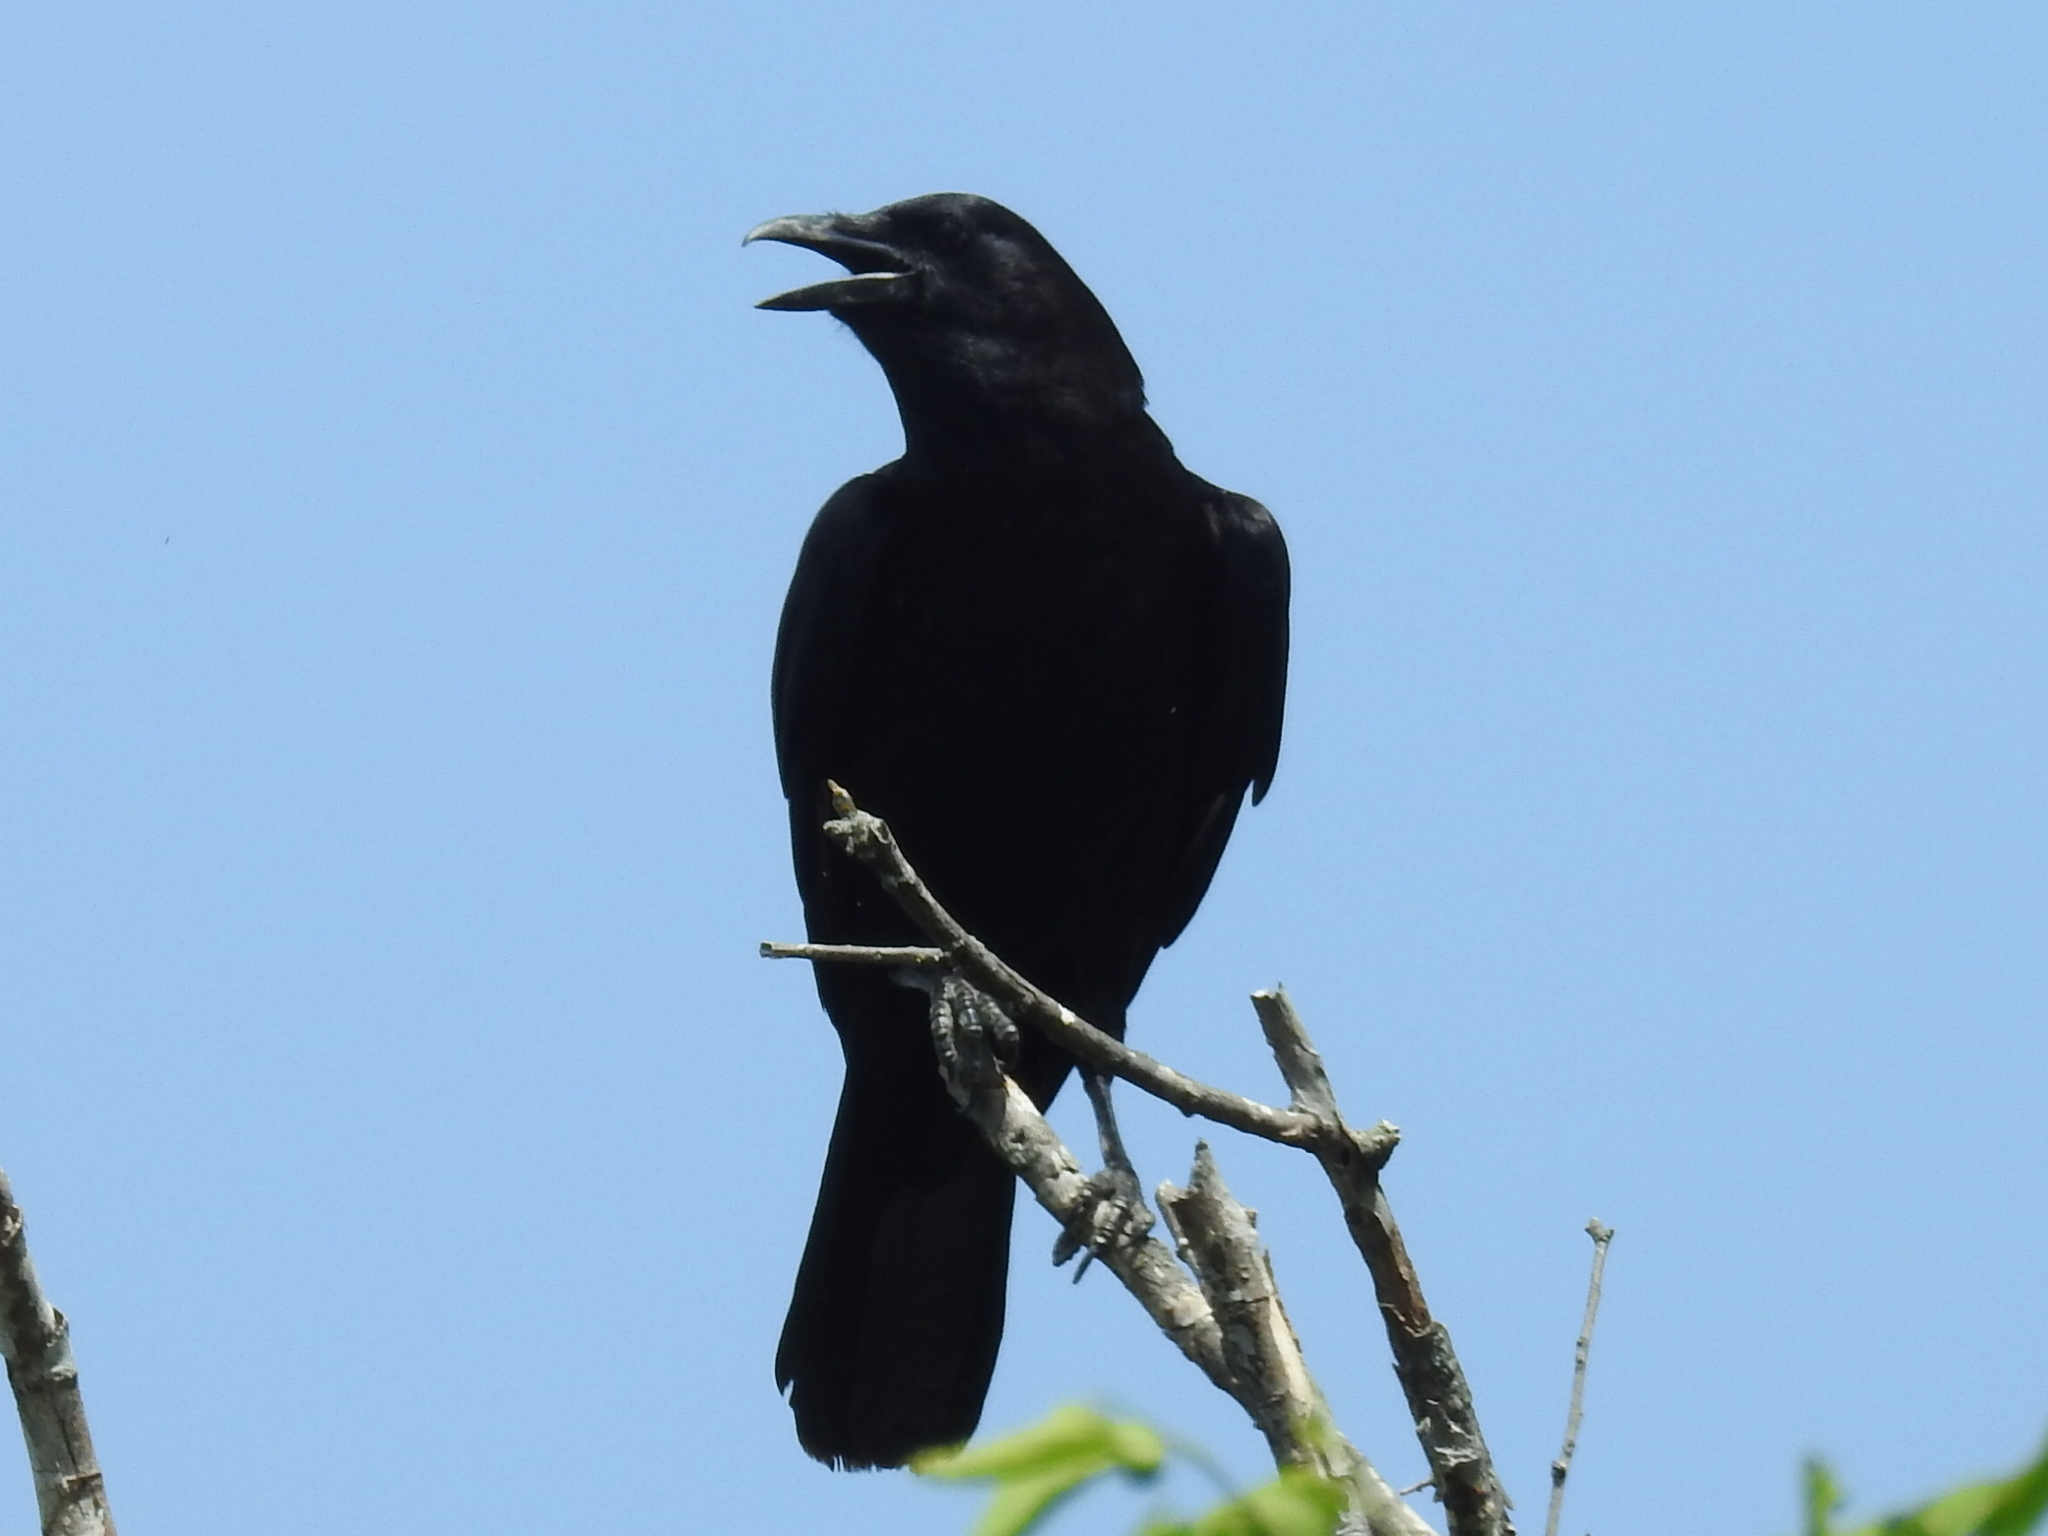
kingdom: Animalia
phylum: Chordata
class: Aves
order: Passeriformes
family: Corvidae
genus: Corvus
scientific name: Corvus brachyrhynchos
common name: American crow
